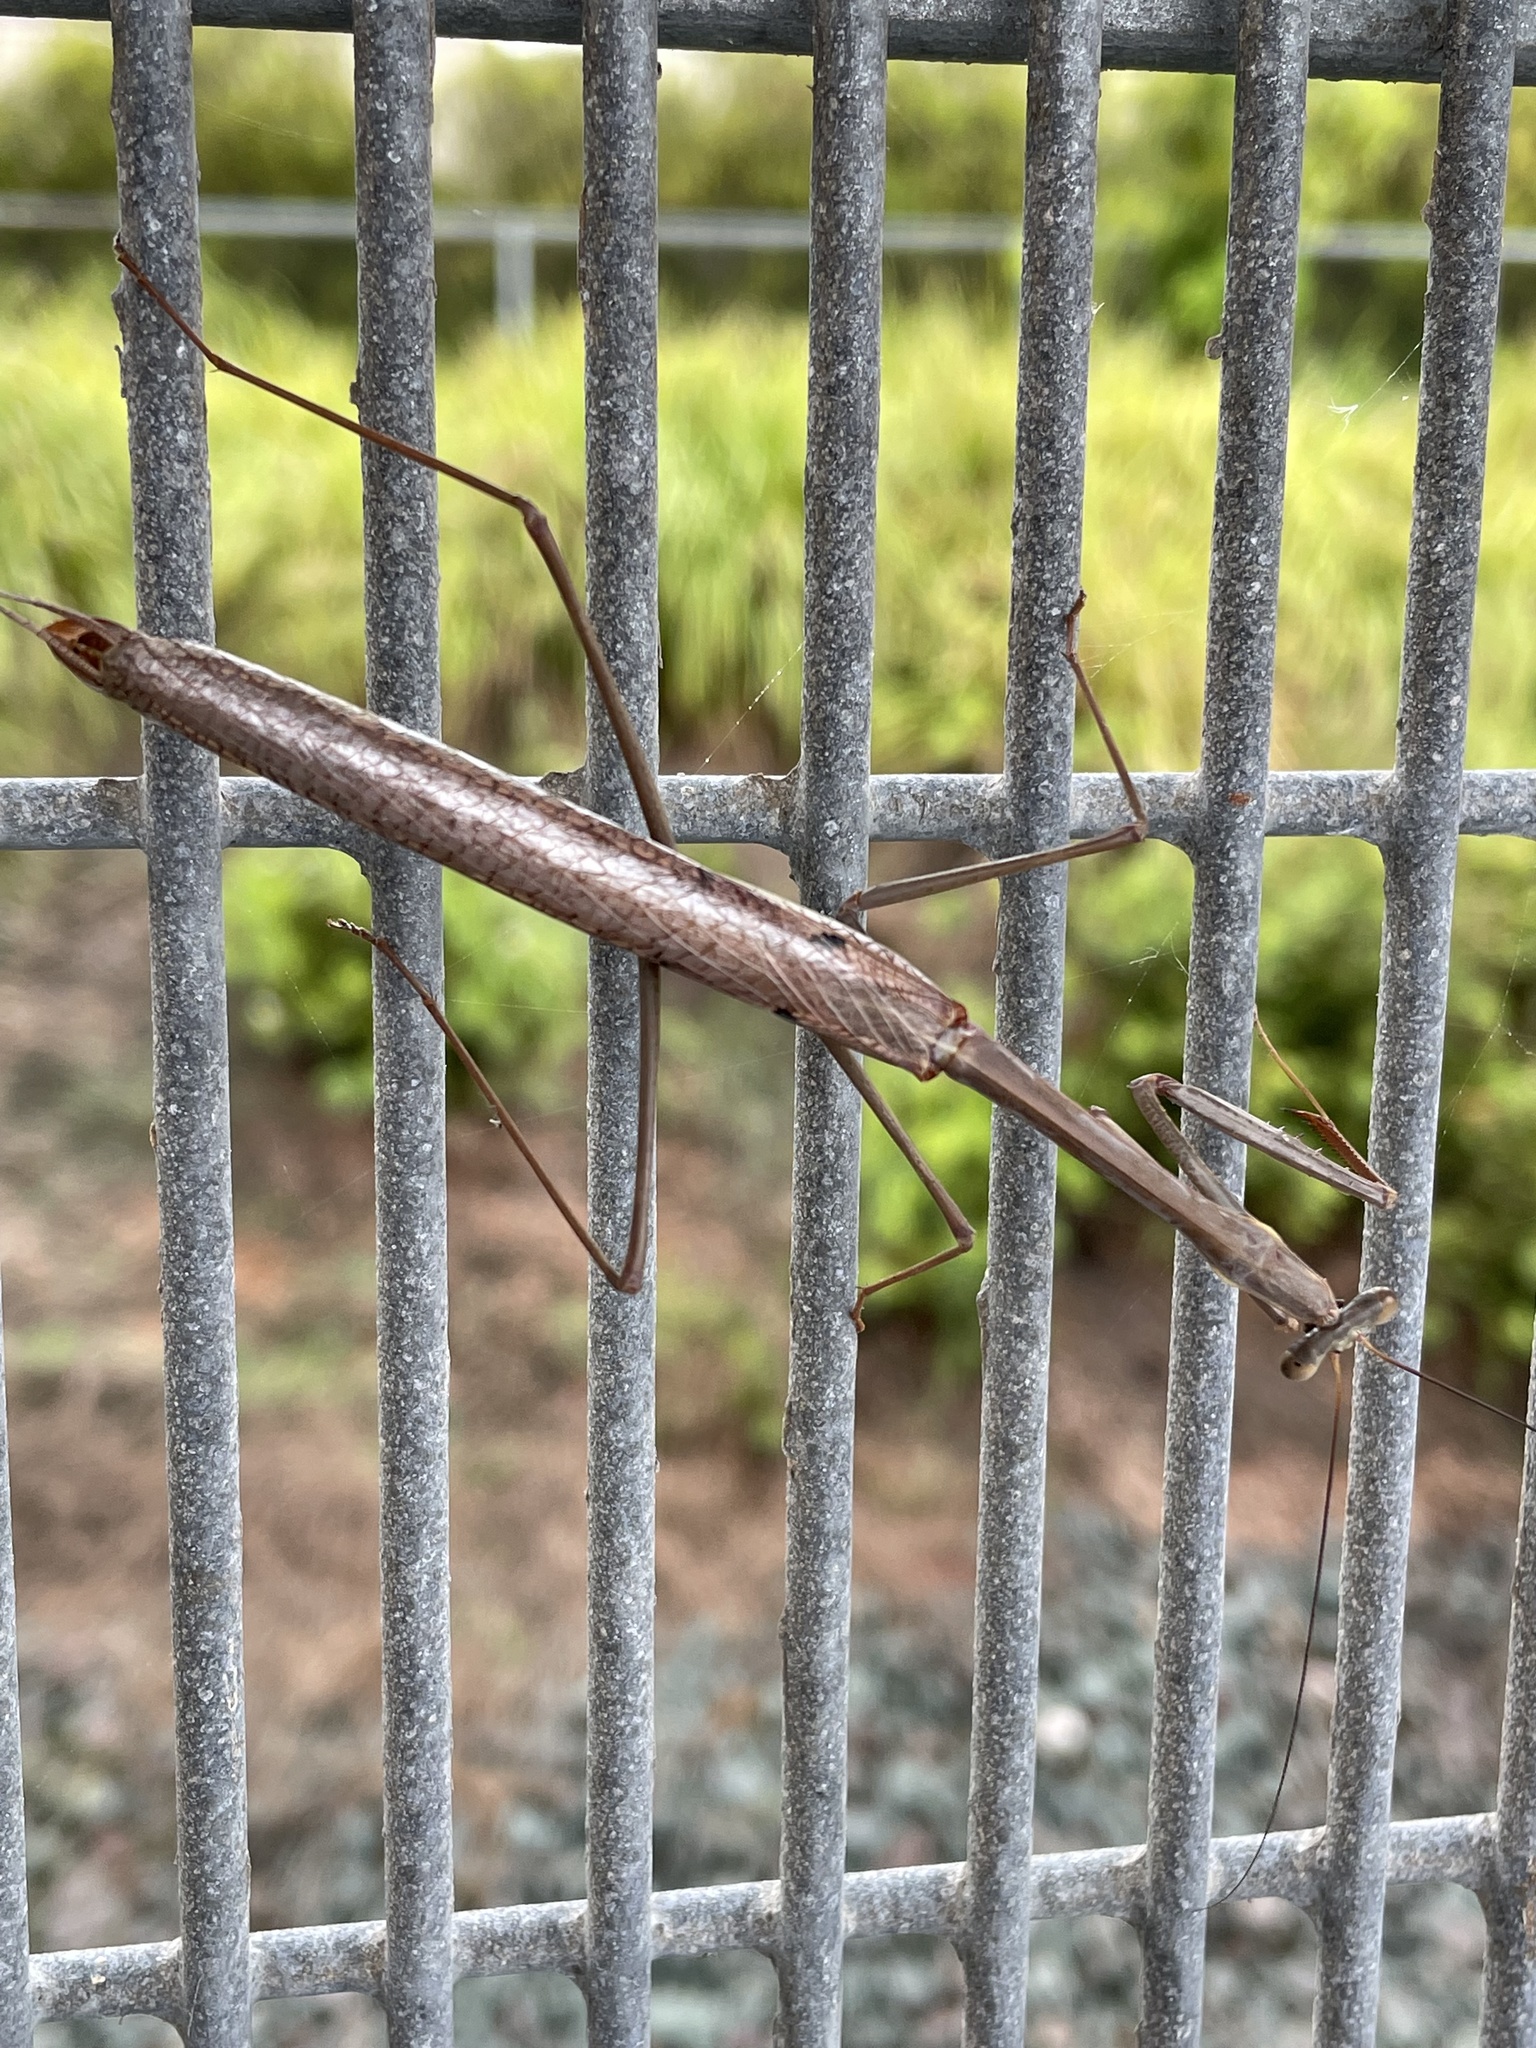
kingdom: Animalia
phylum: Arthropoda
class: Insecta
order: Mantodea
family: Mantidae
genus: Archimantis
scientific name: Archimantis latistyla
